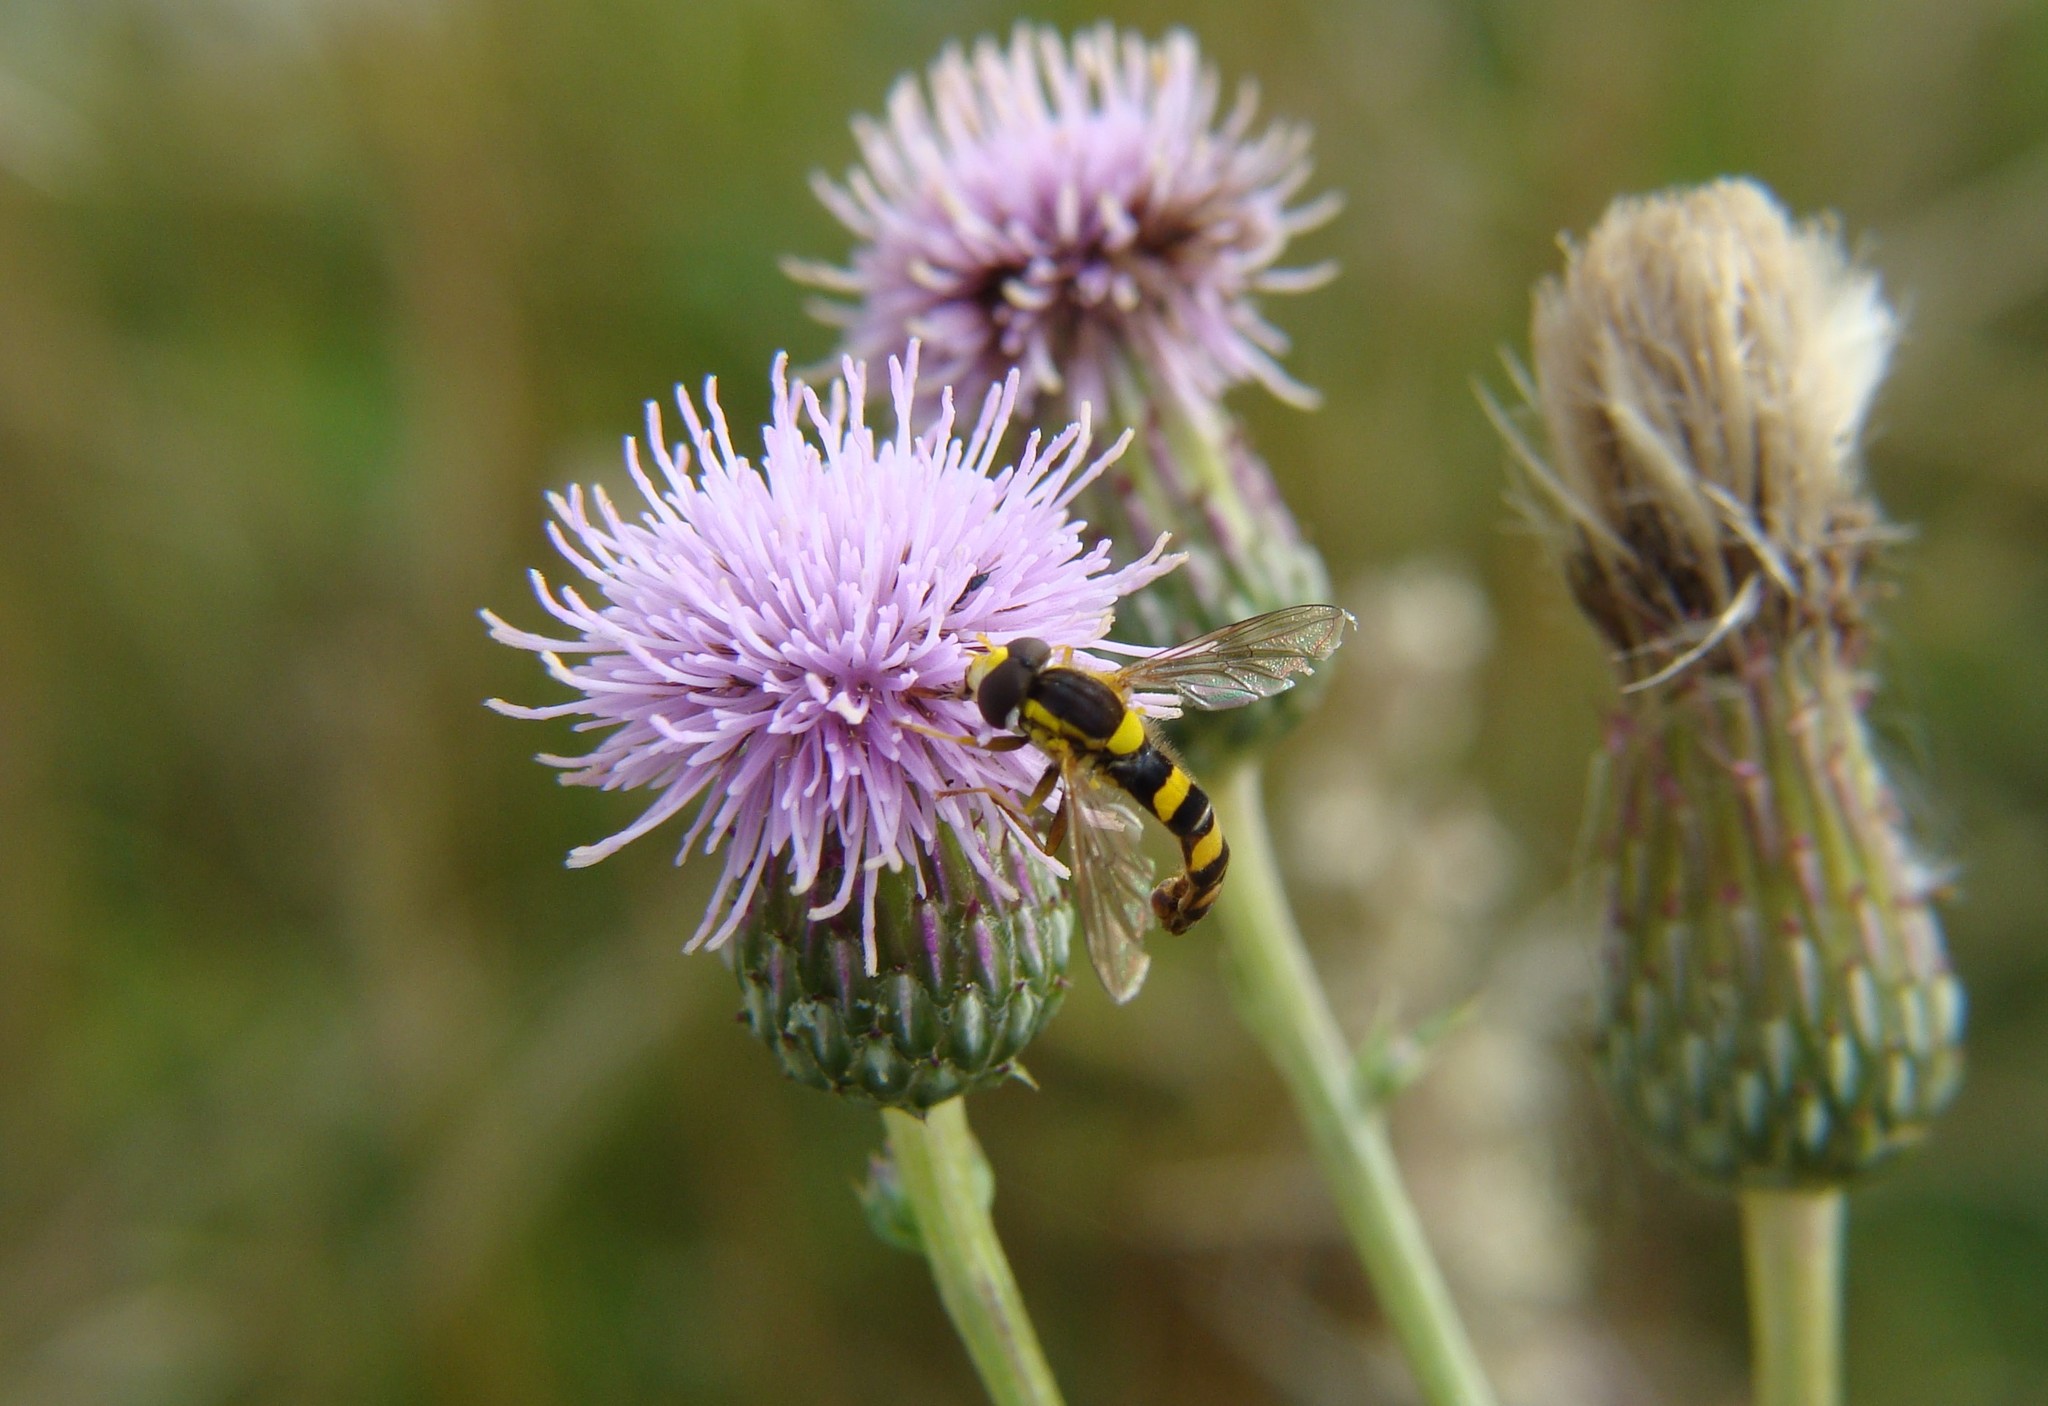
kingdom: Animalia
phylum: Arthropoda
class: Insecta
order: Diptera
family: Syrphidae
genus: Sphaerophoria
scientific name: Sphaerophoria scripta
